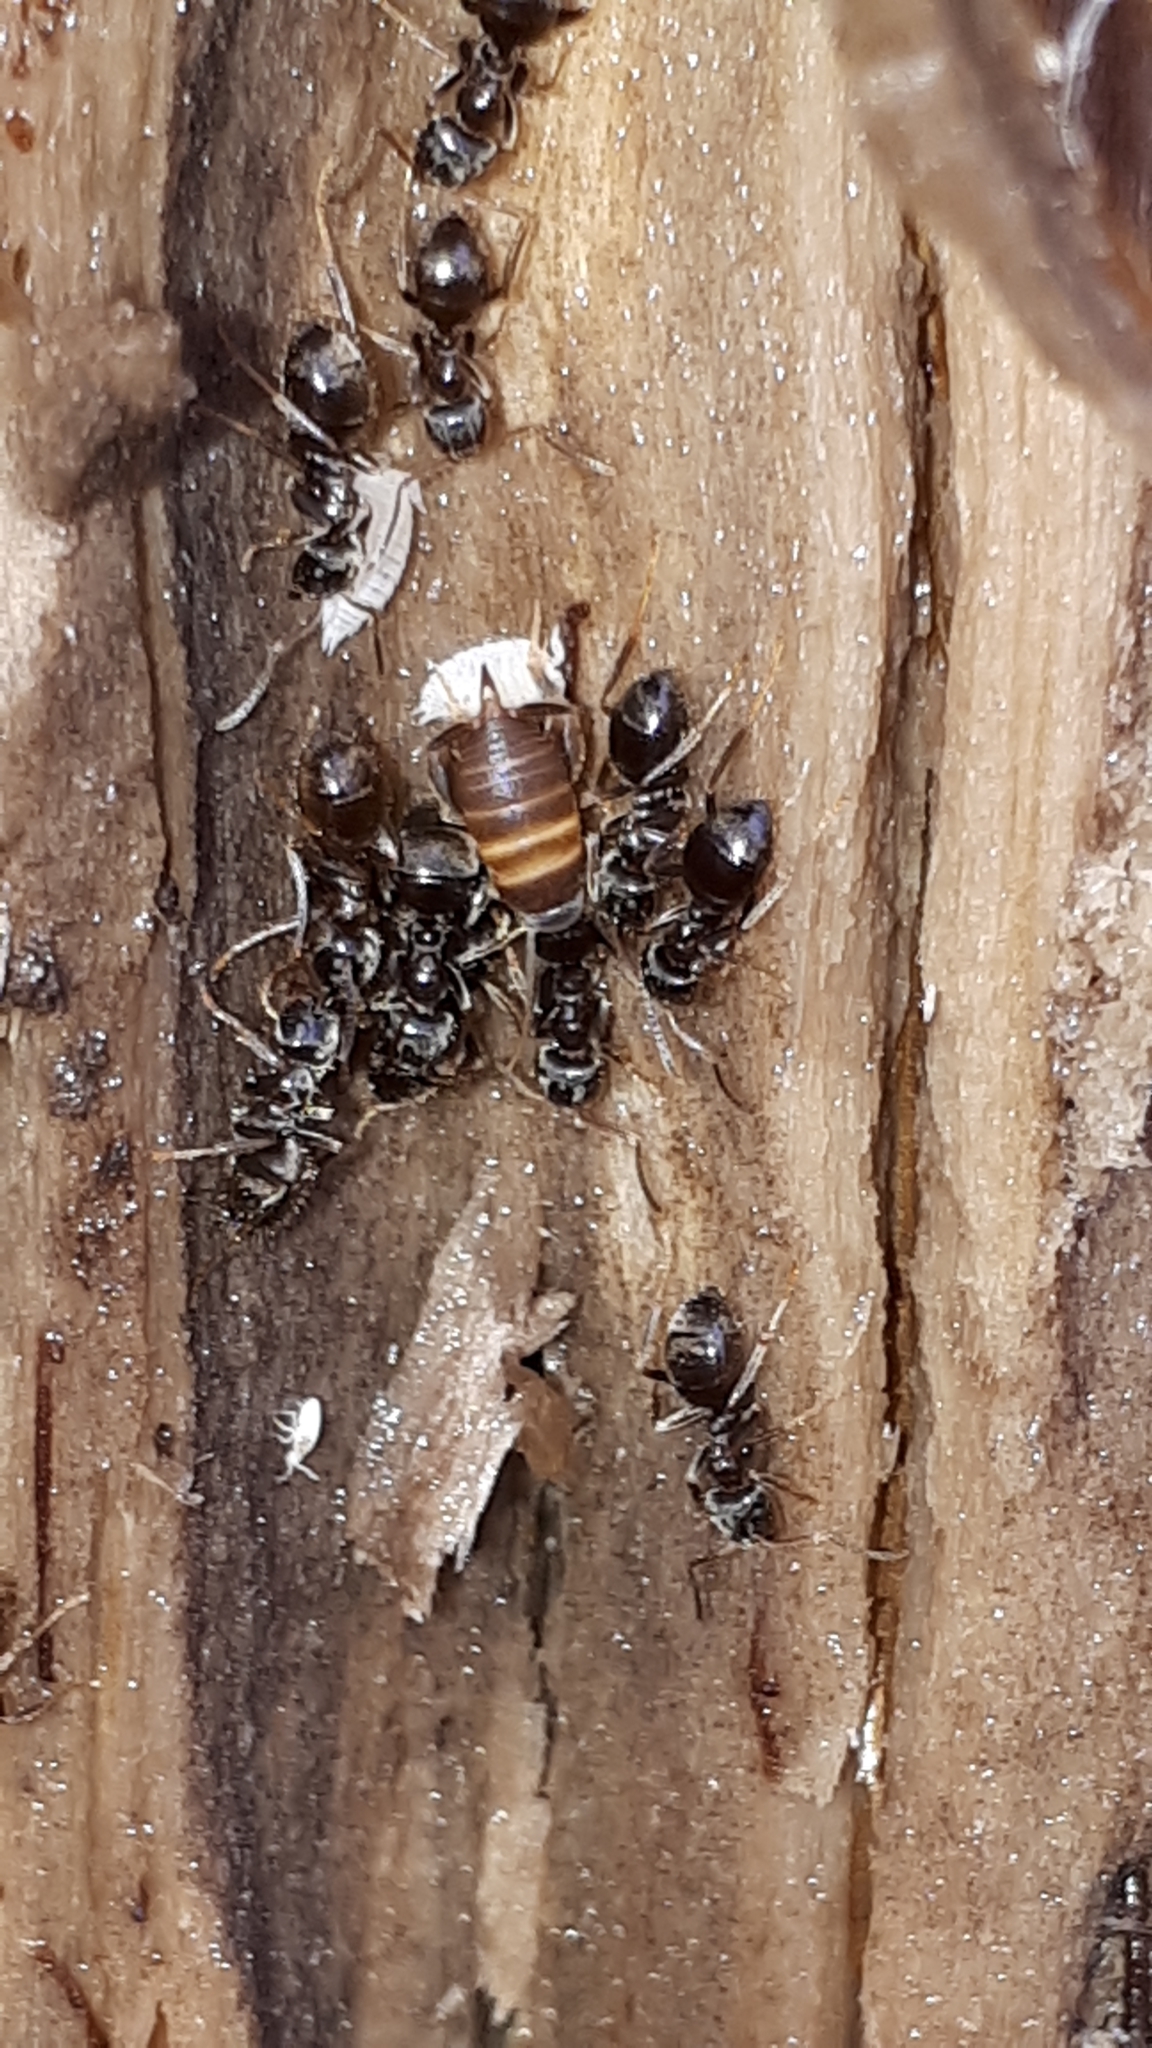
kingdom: Animalia
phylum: Arthropoda
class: Malacostraca
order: Isopoda
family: Platyarthridae
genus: Platyarthrus
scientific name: Platyarthrus hoffmannseggii
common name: Ant woodlouse
